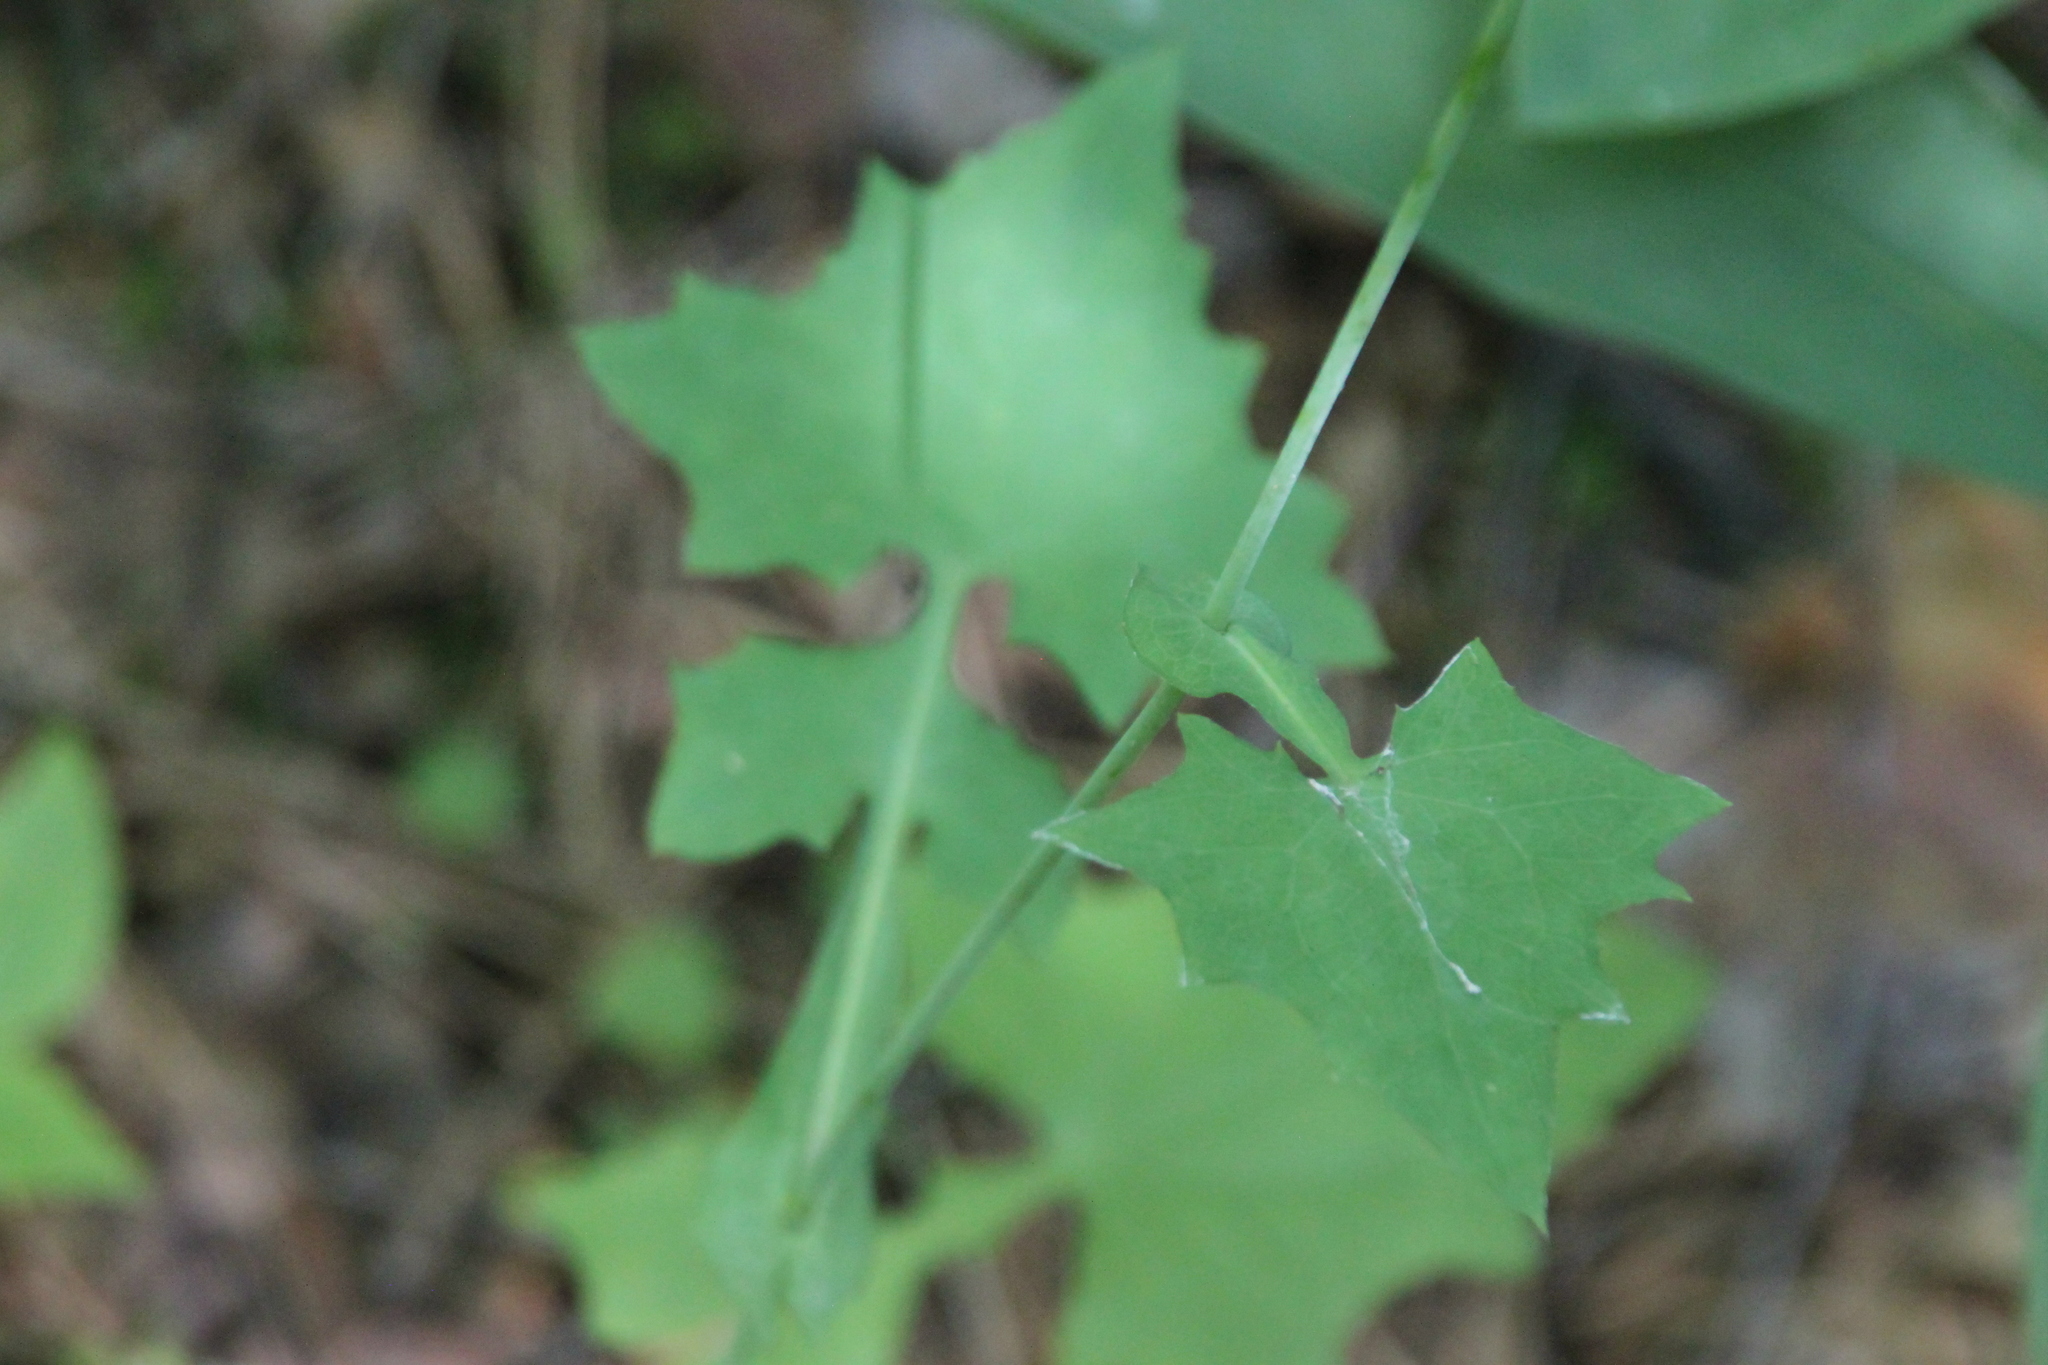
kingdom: Plantae
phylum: Tracheophyta
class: Magnoliopsida
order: Asterales
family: Asteraceae
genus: Mycelis
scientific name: Mycelis muralis
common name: Wall lettuce
